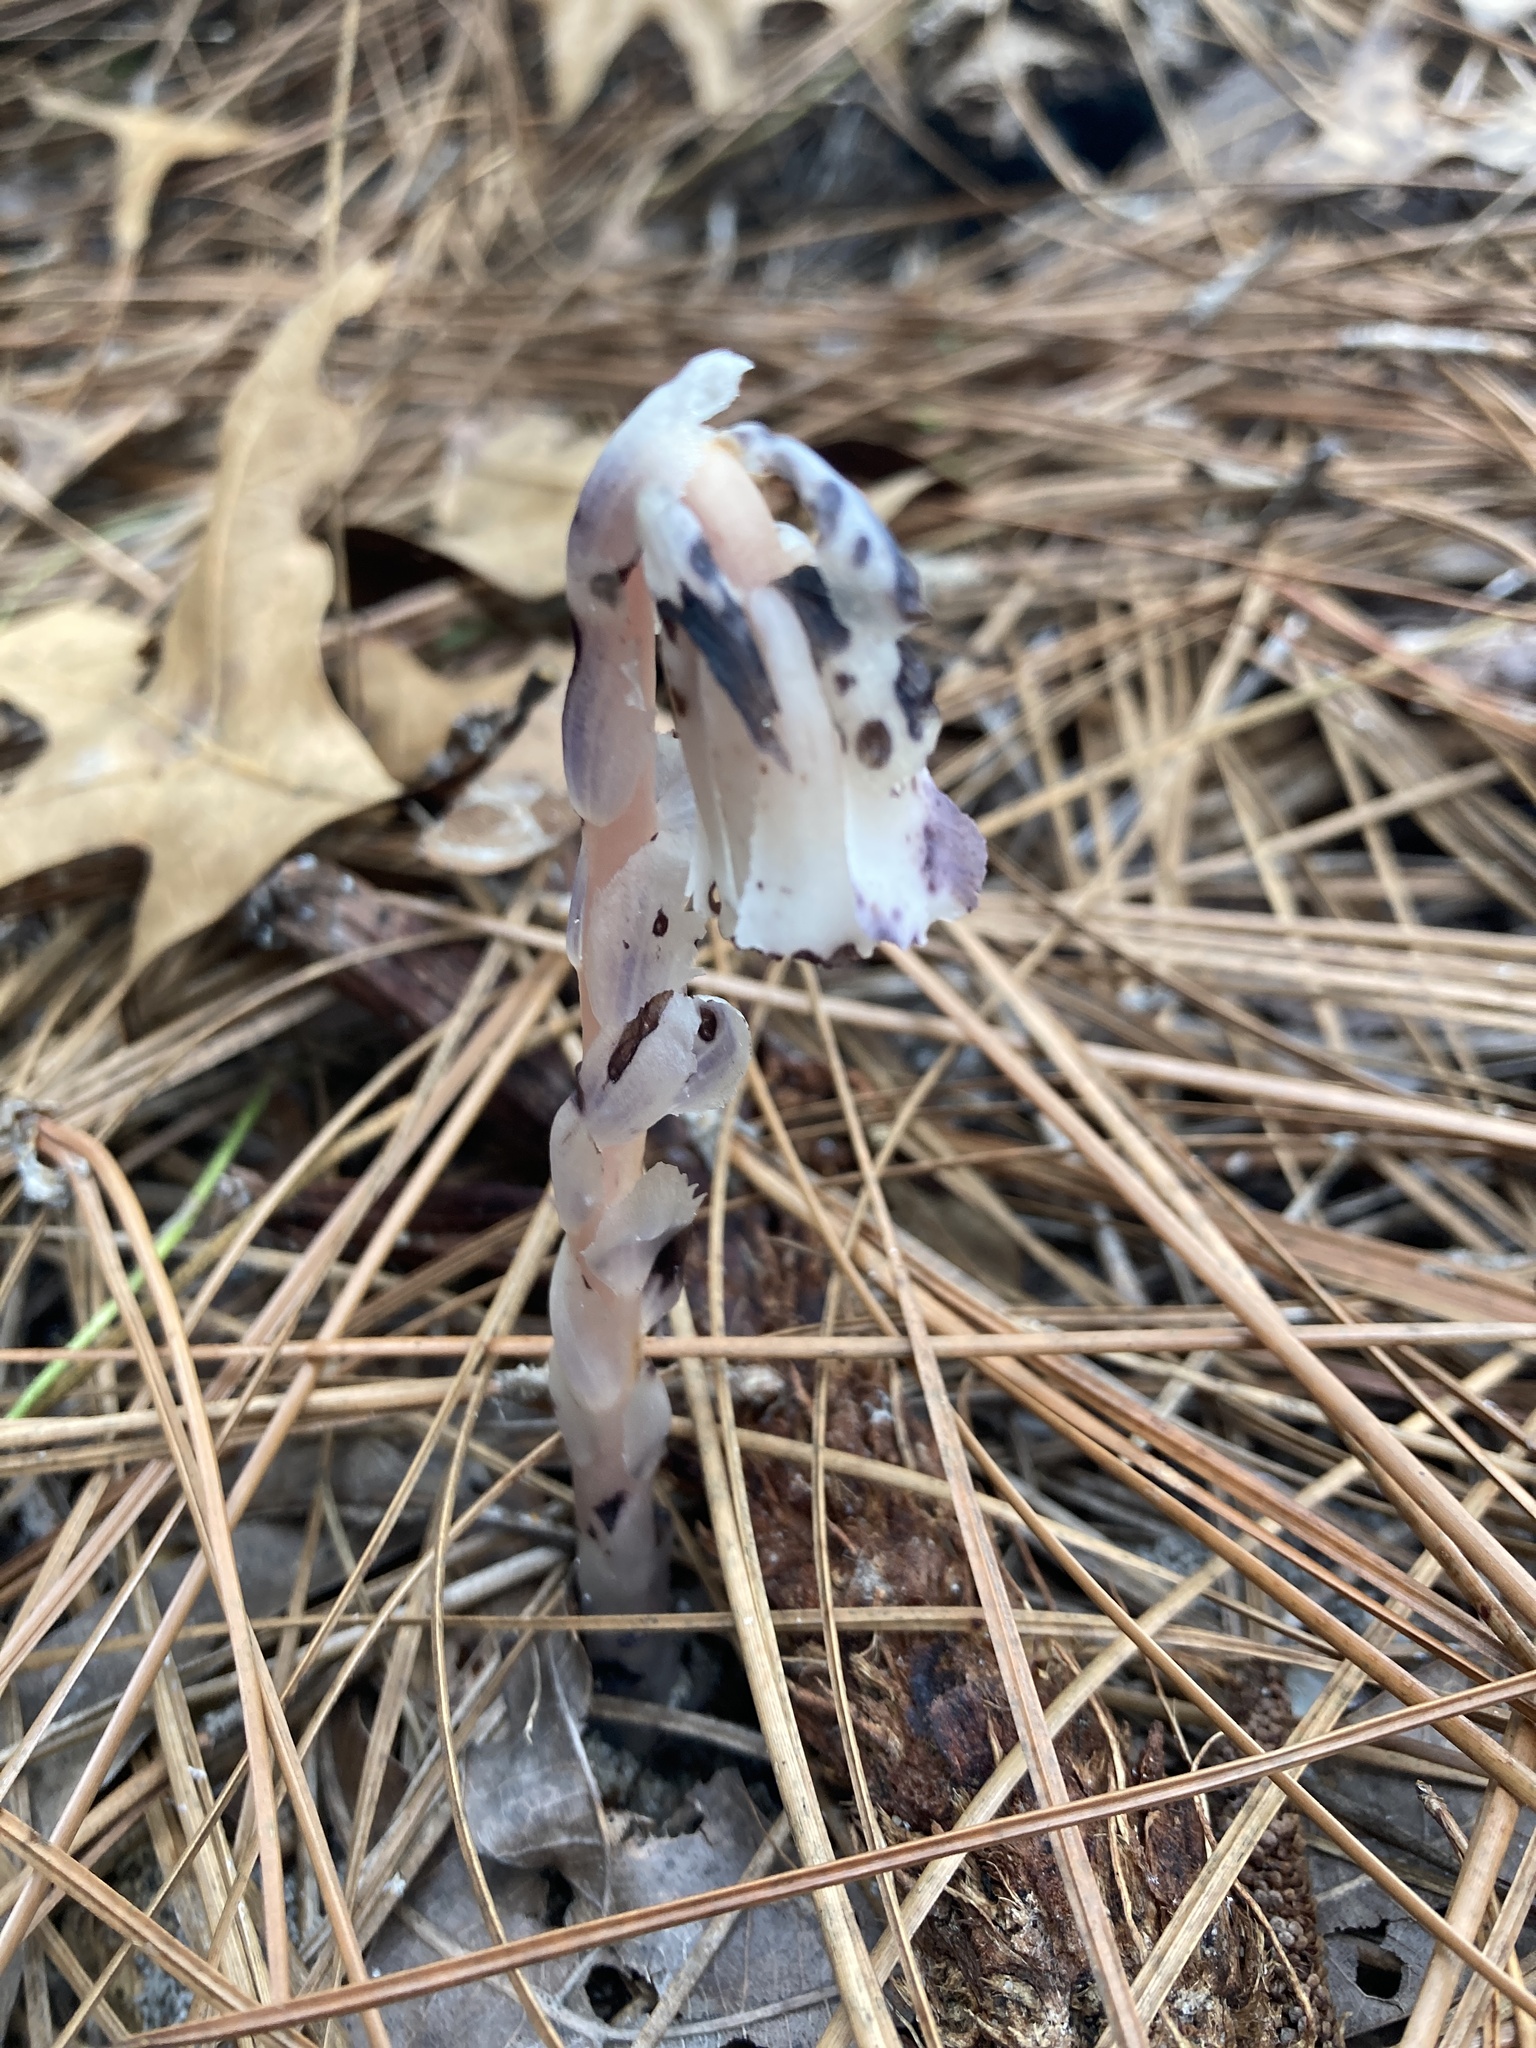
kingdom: Plantae
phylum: Tracheophyta
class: Magnoliopsida
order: Ericales
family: Ericaceae
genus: Monotropa
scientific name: Monotropa uniflora
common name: Convulsion root
